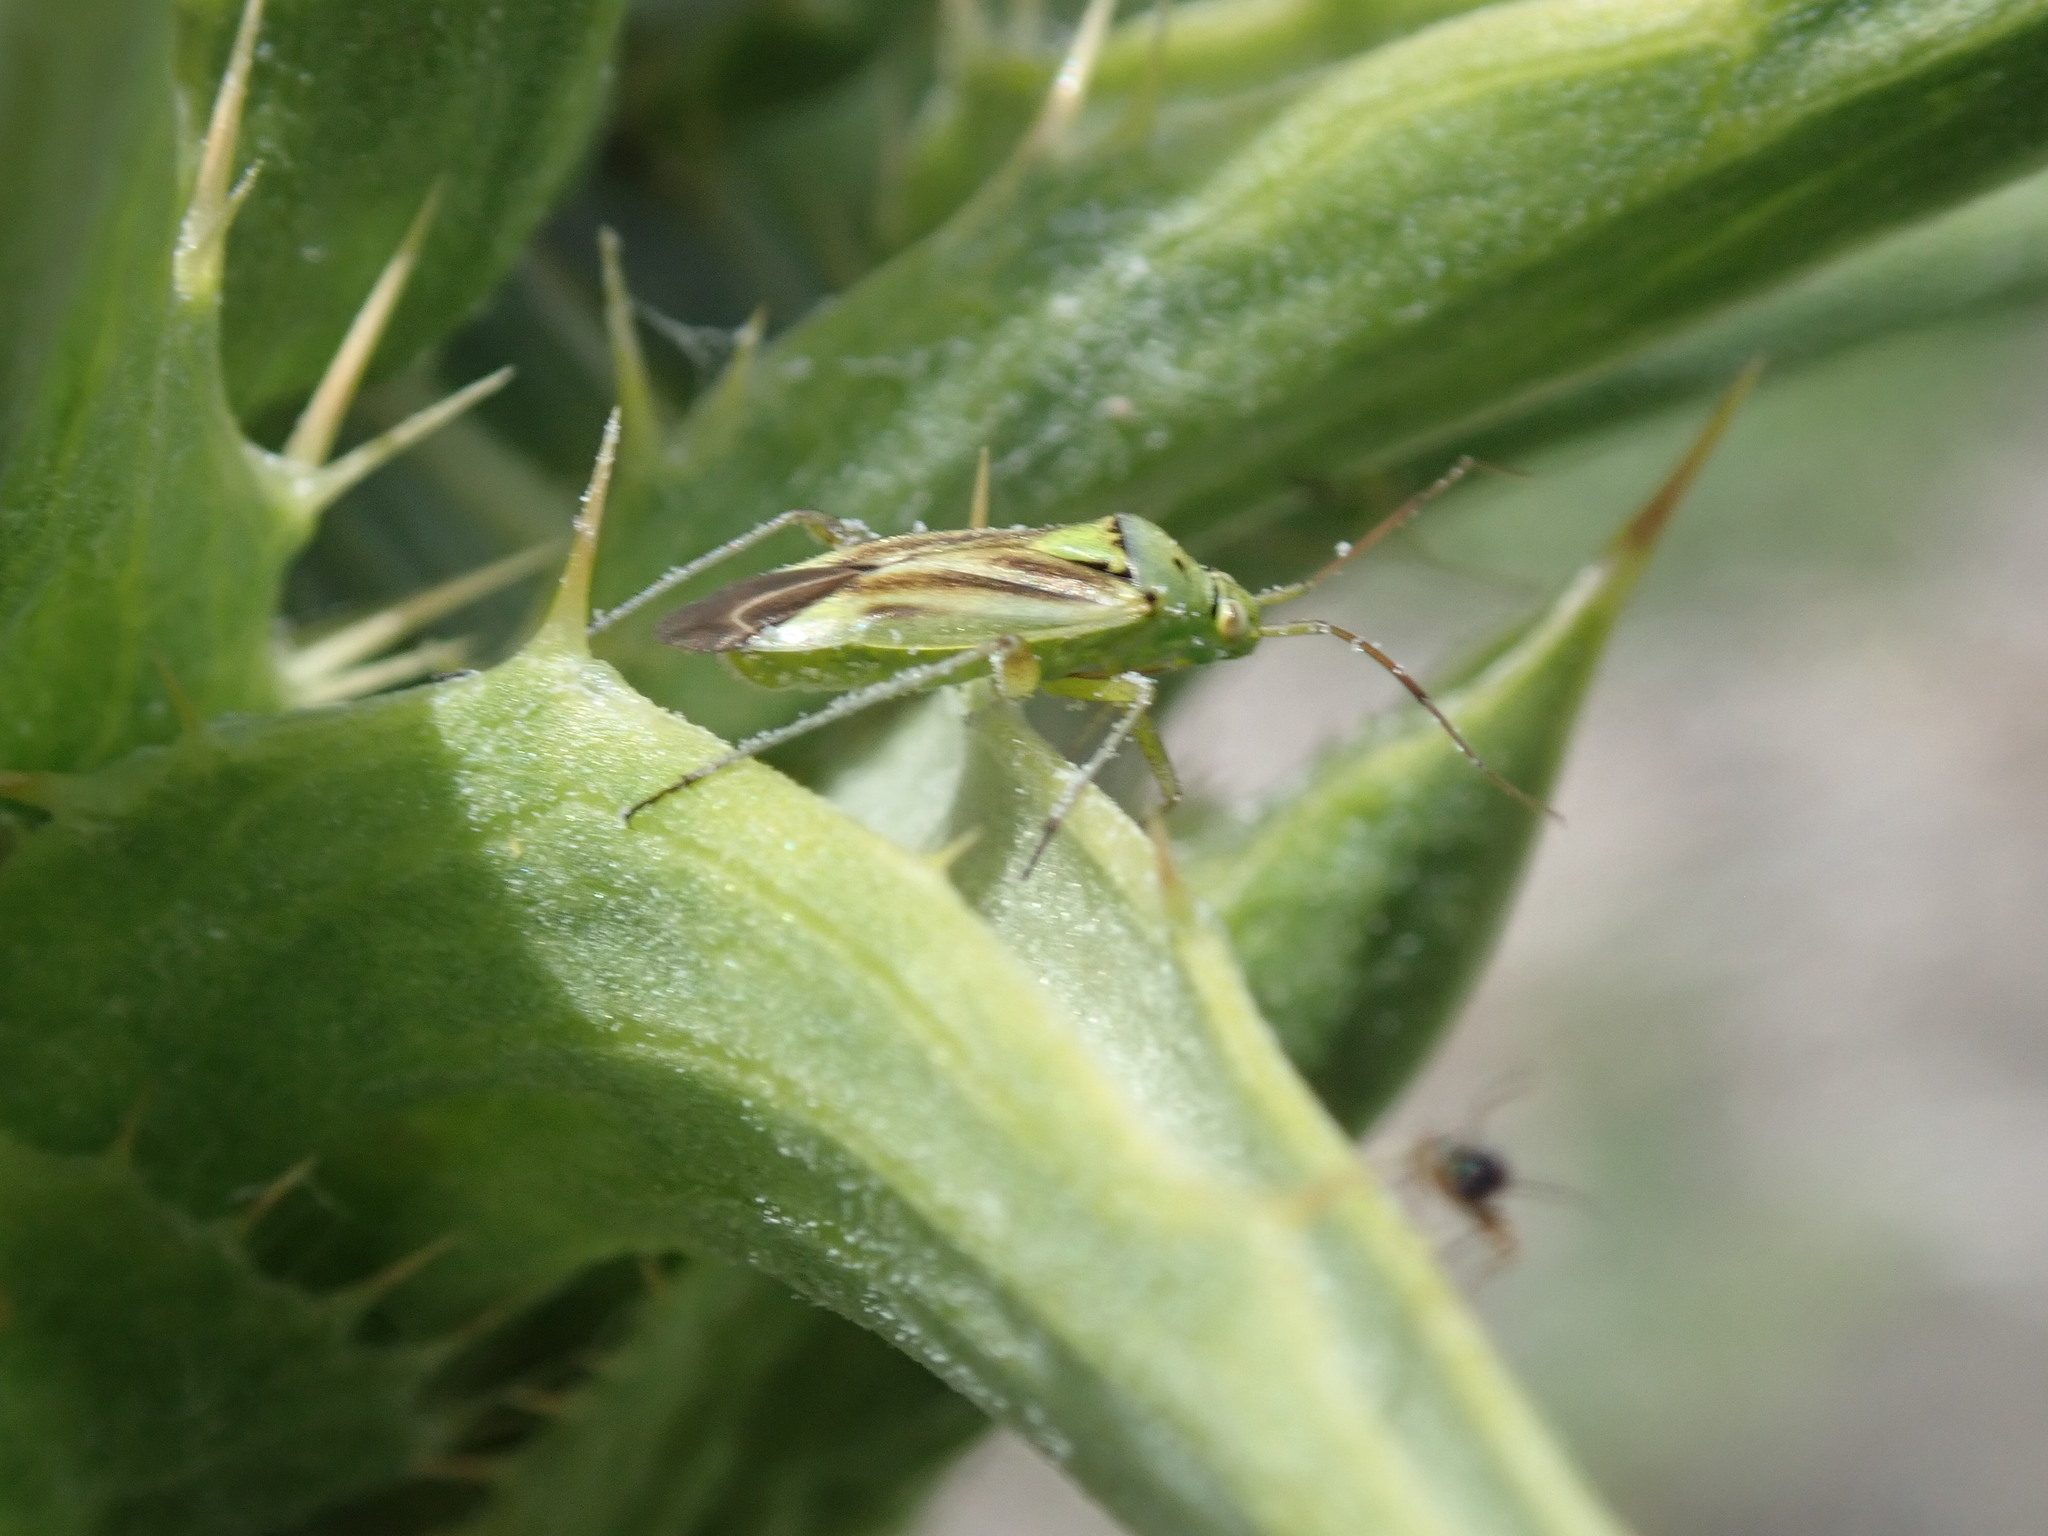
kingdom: Animalia
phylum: Arthropoda
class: Insecta
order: Hemiptera
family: Miridae
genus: Closterotomus
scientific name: Closterotomus norvegicus
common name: Plant bug
